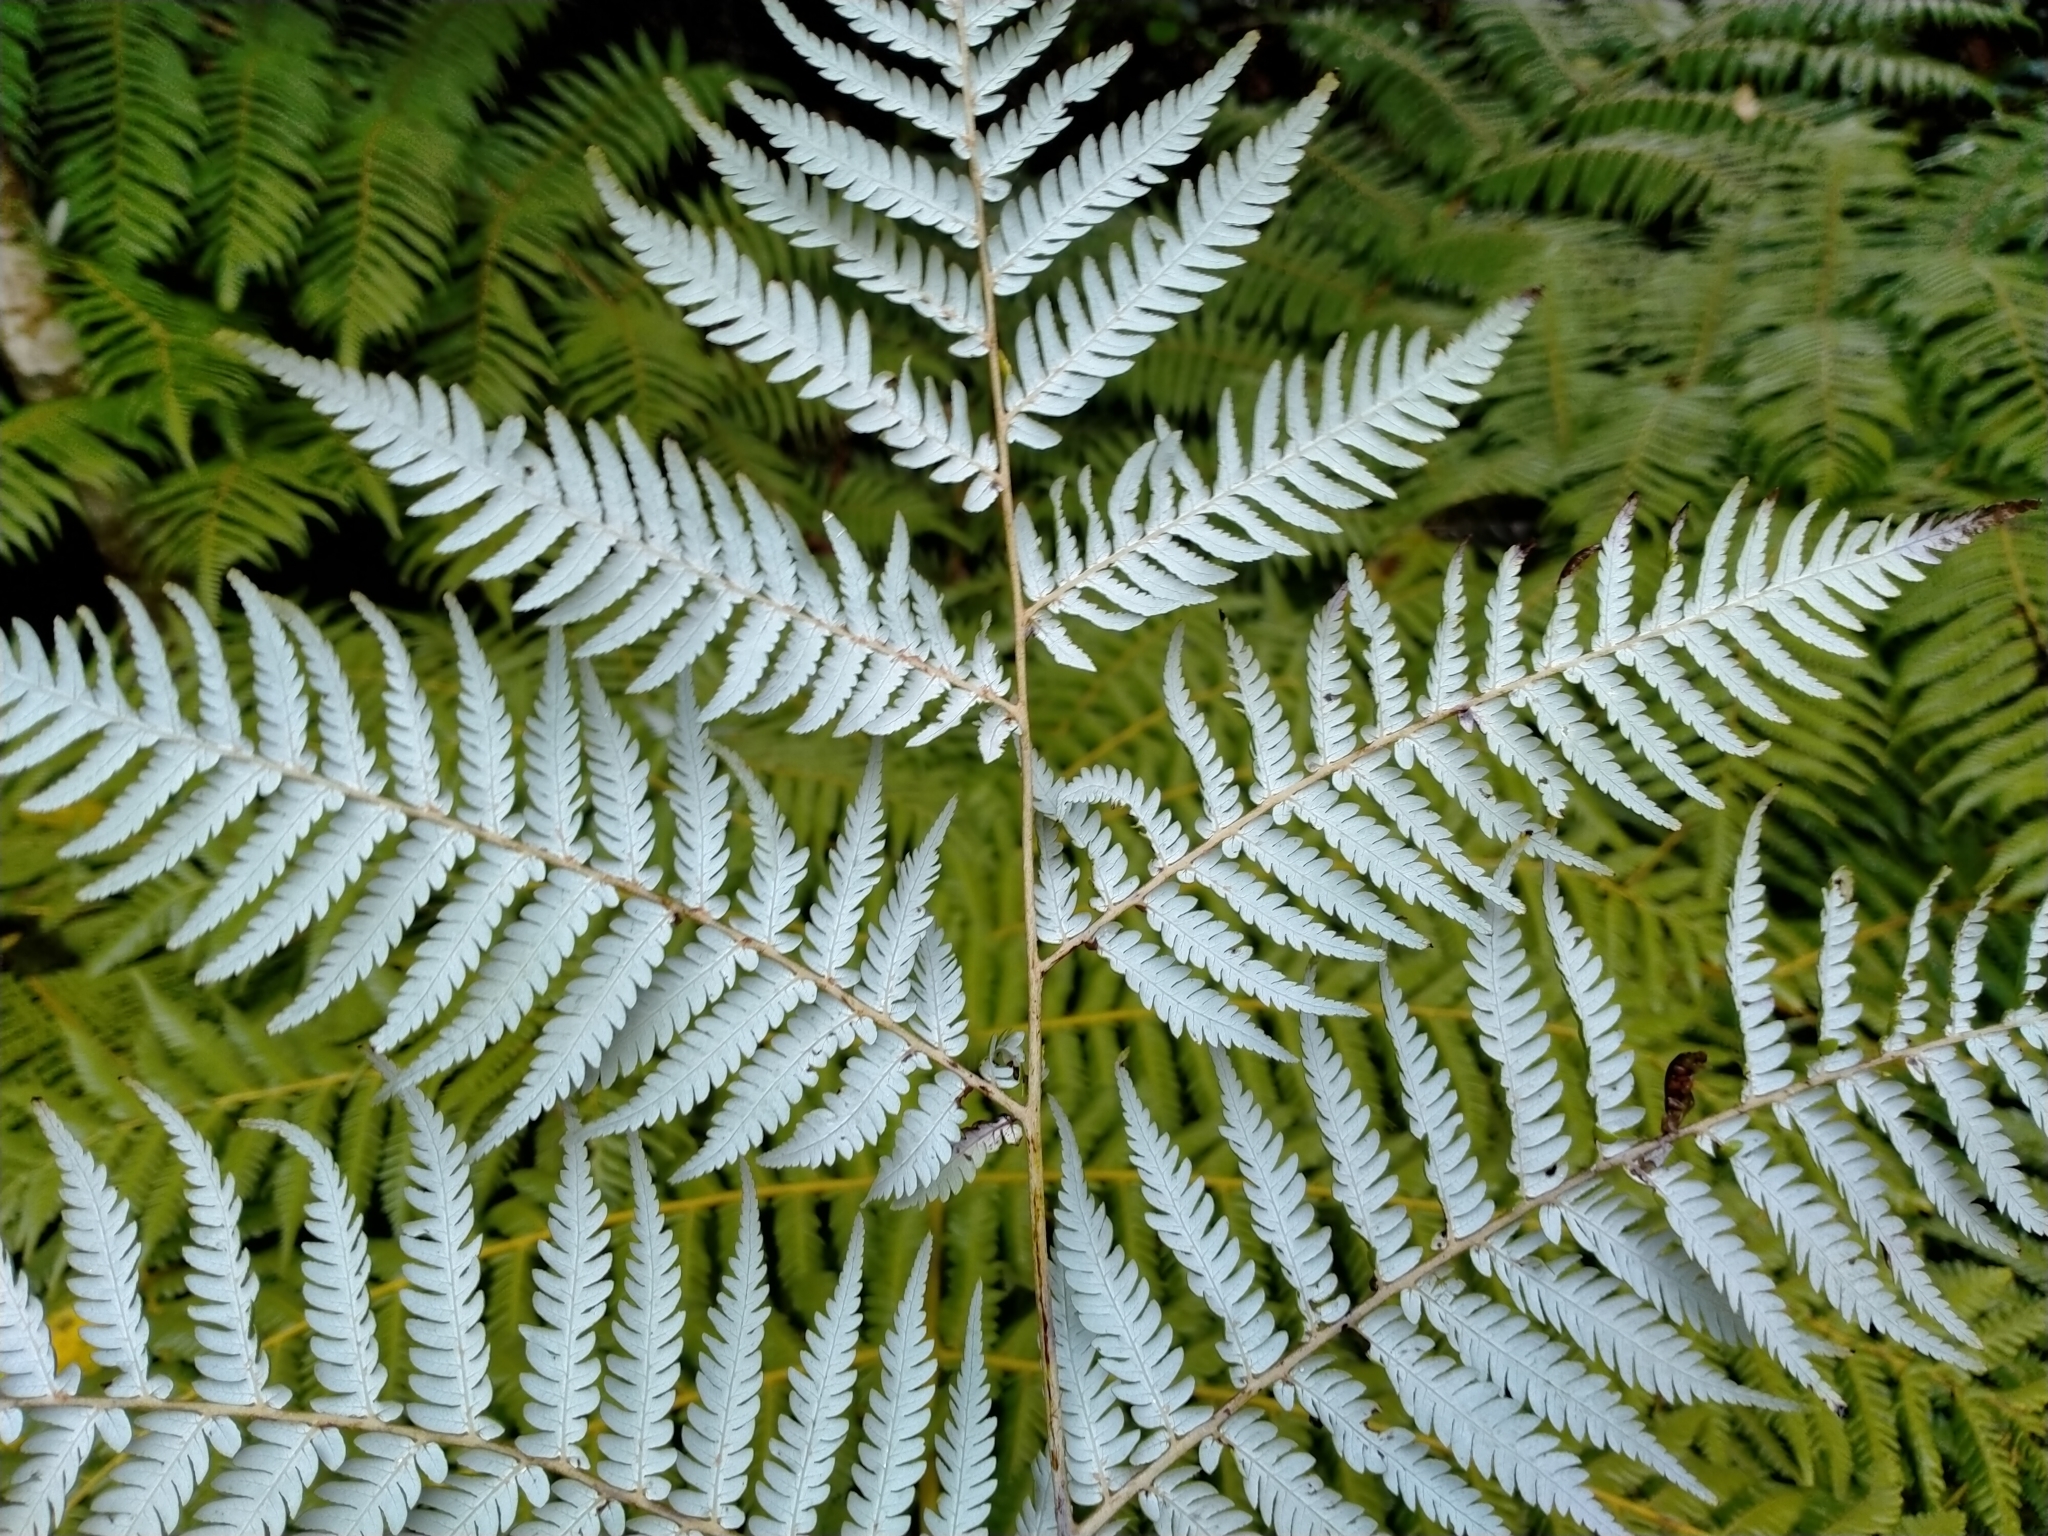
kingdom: Plantae
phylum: Tracheophyta
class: Polypodiopsida
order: Cyatheales
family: Cyatheaceae
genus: Alsophila
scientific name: Alsophila dealbata
